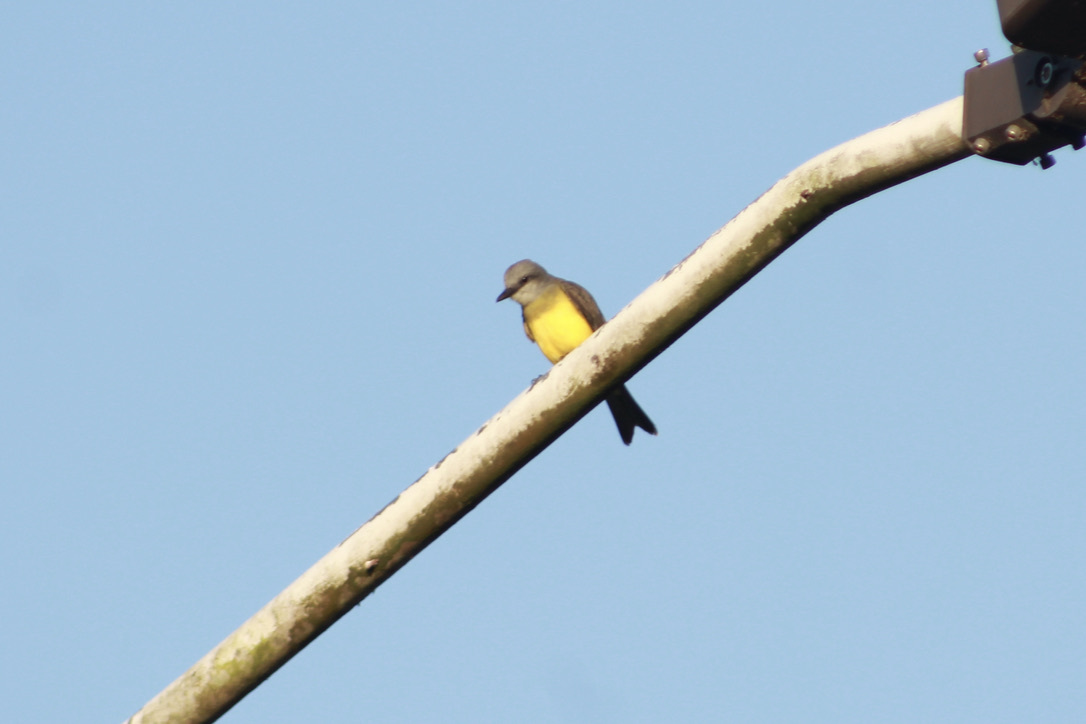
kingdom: Animalia
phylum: Chordata
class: Aves
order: Passeriformes
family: Tyrannidae
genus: Tyrannus
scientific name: Tyrannus melancholicus
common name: Tropical kingbird
